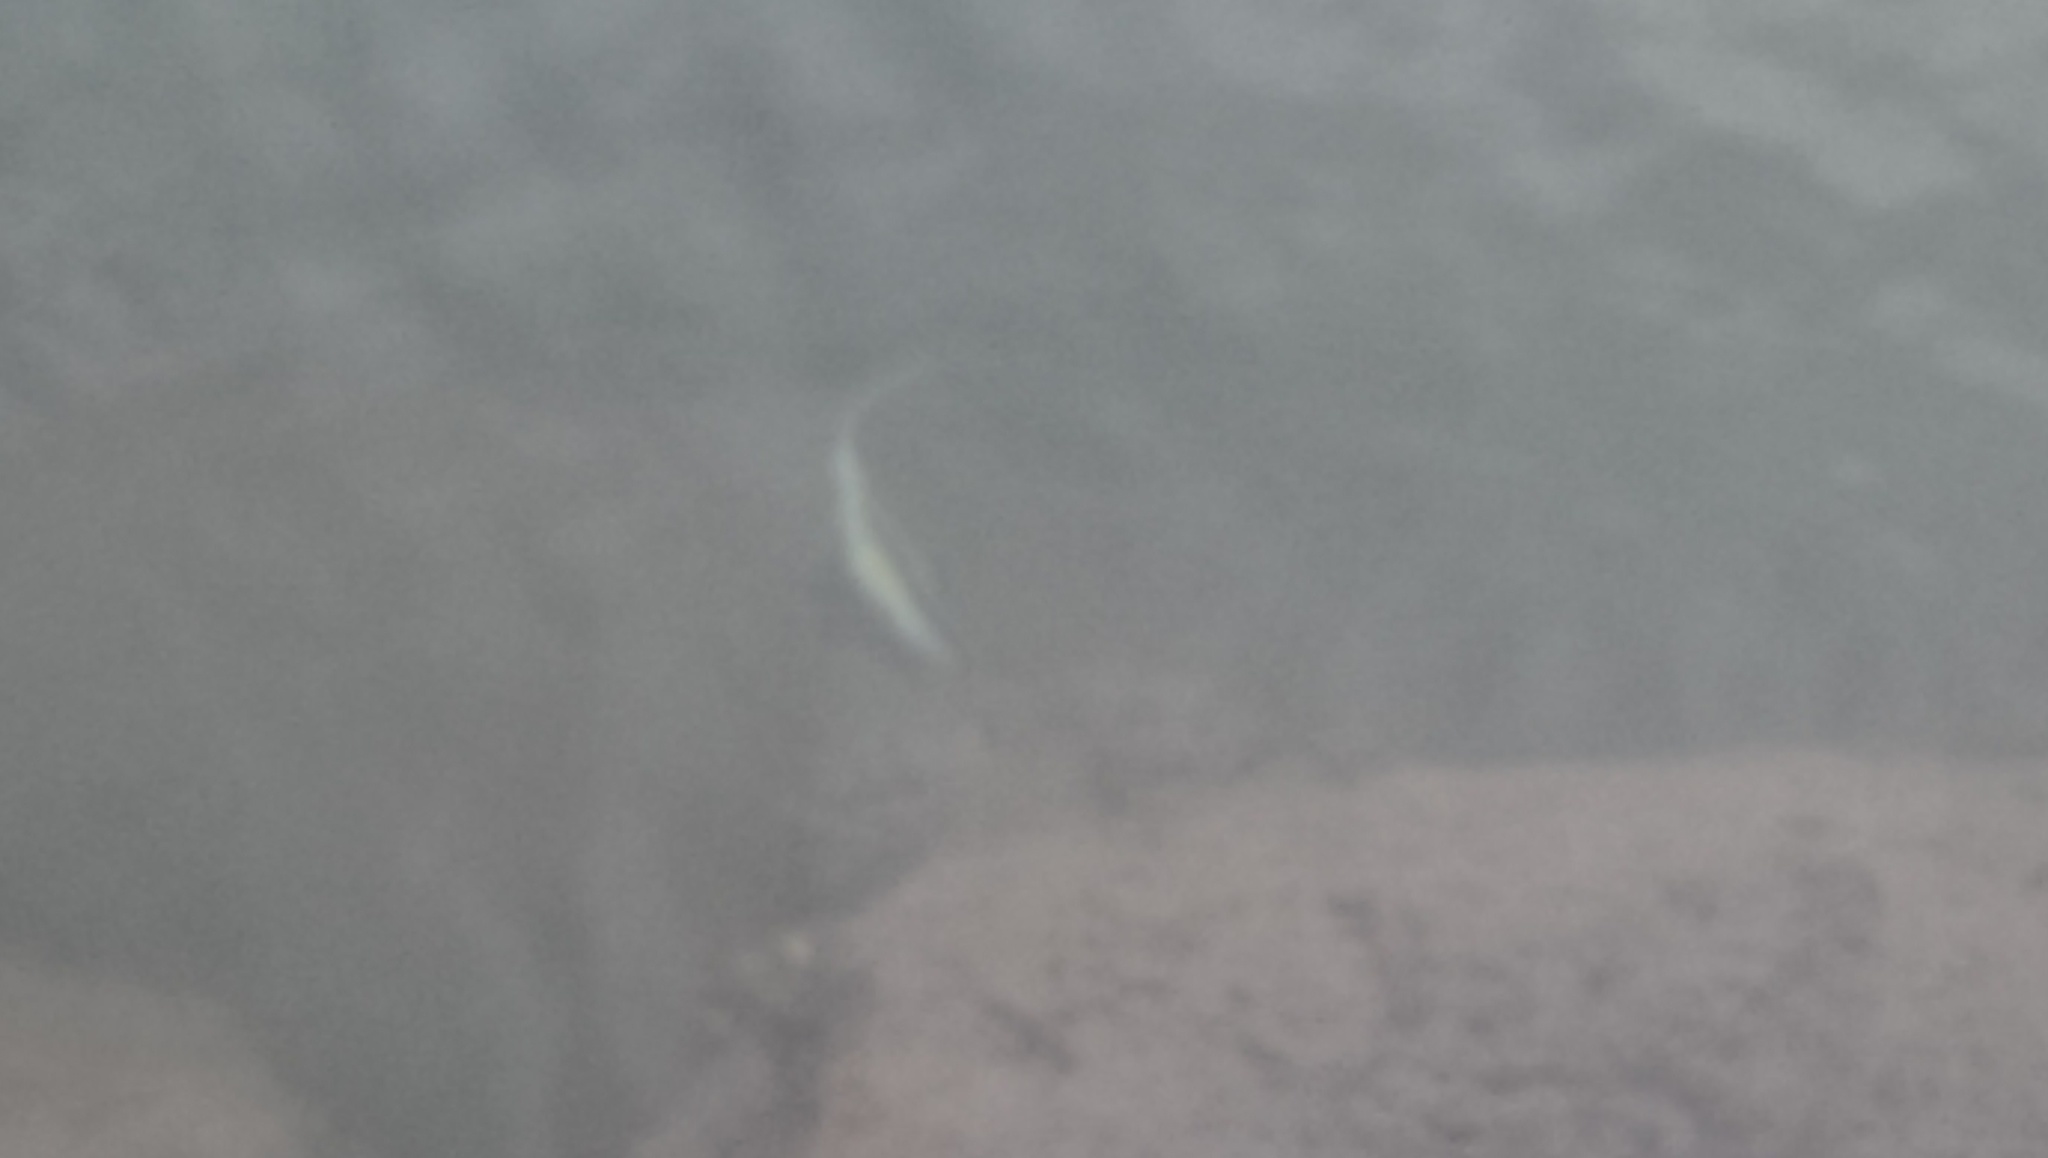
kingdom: Animalia
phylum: Chordata
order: Perciformes
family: Zanclidae
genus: Zanclus
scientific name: Zanclus cornutus
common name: Moorish idol
